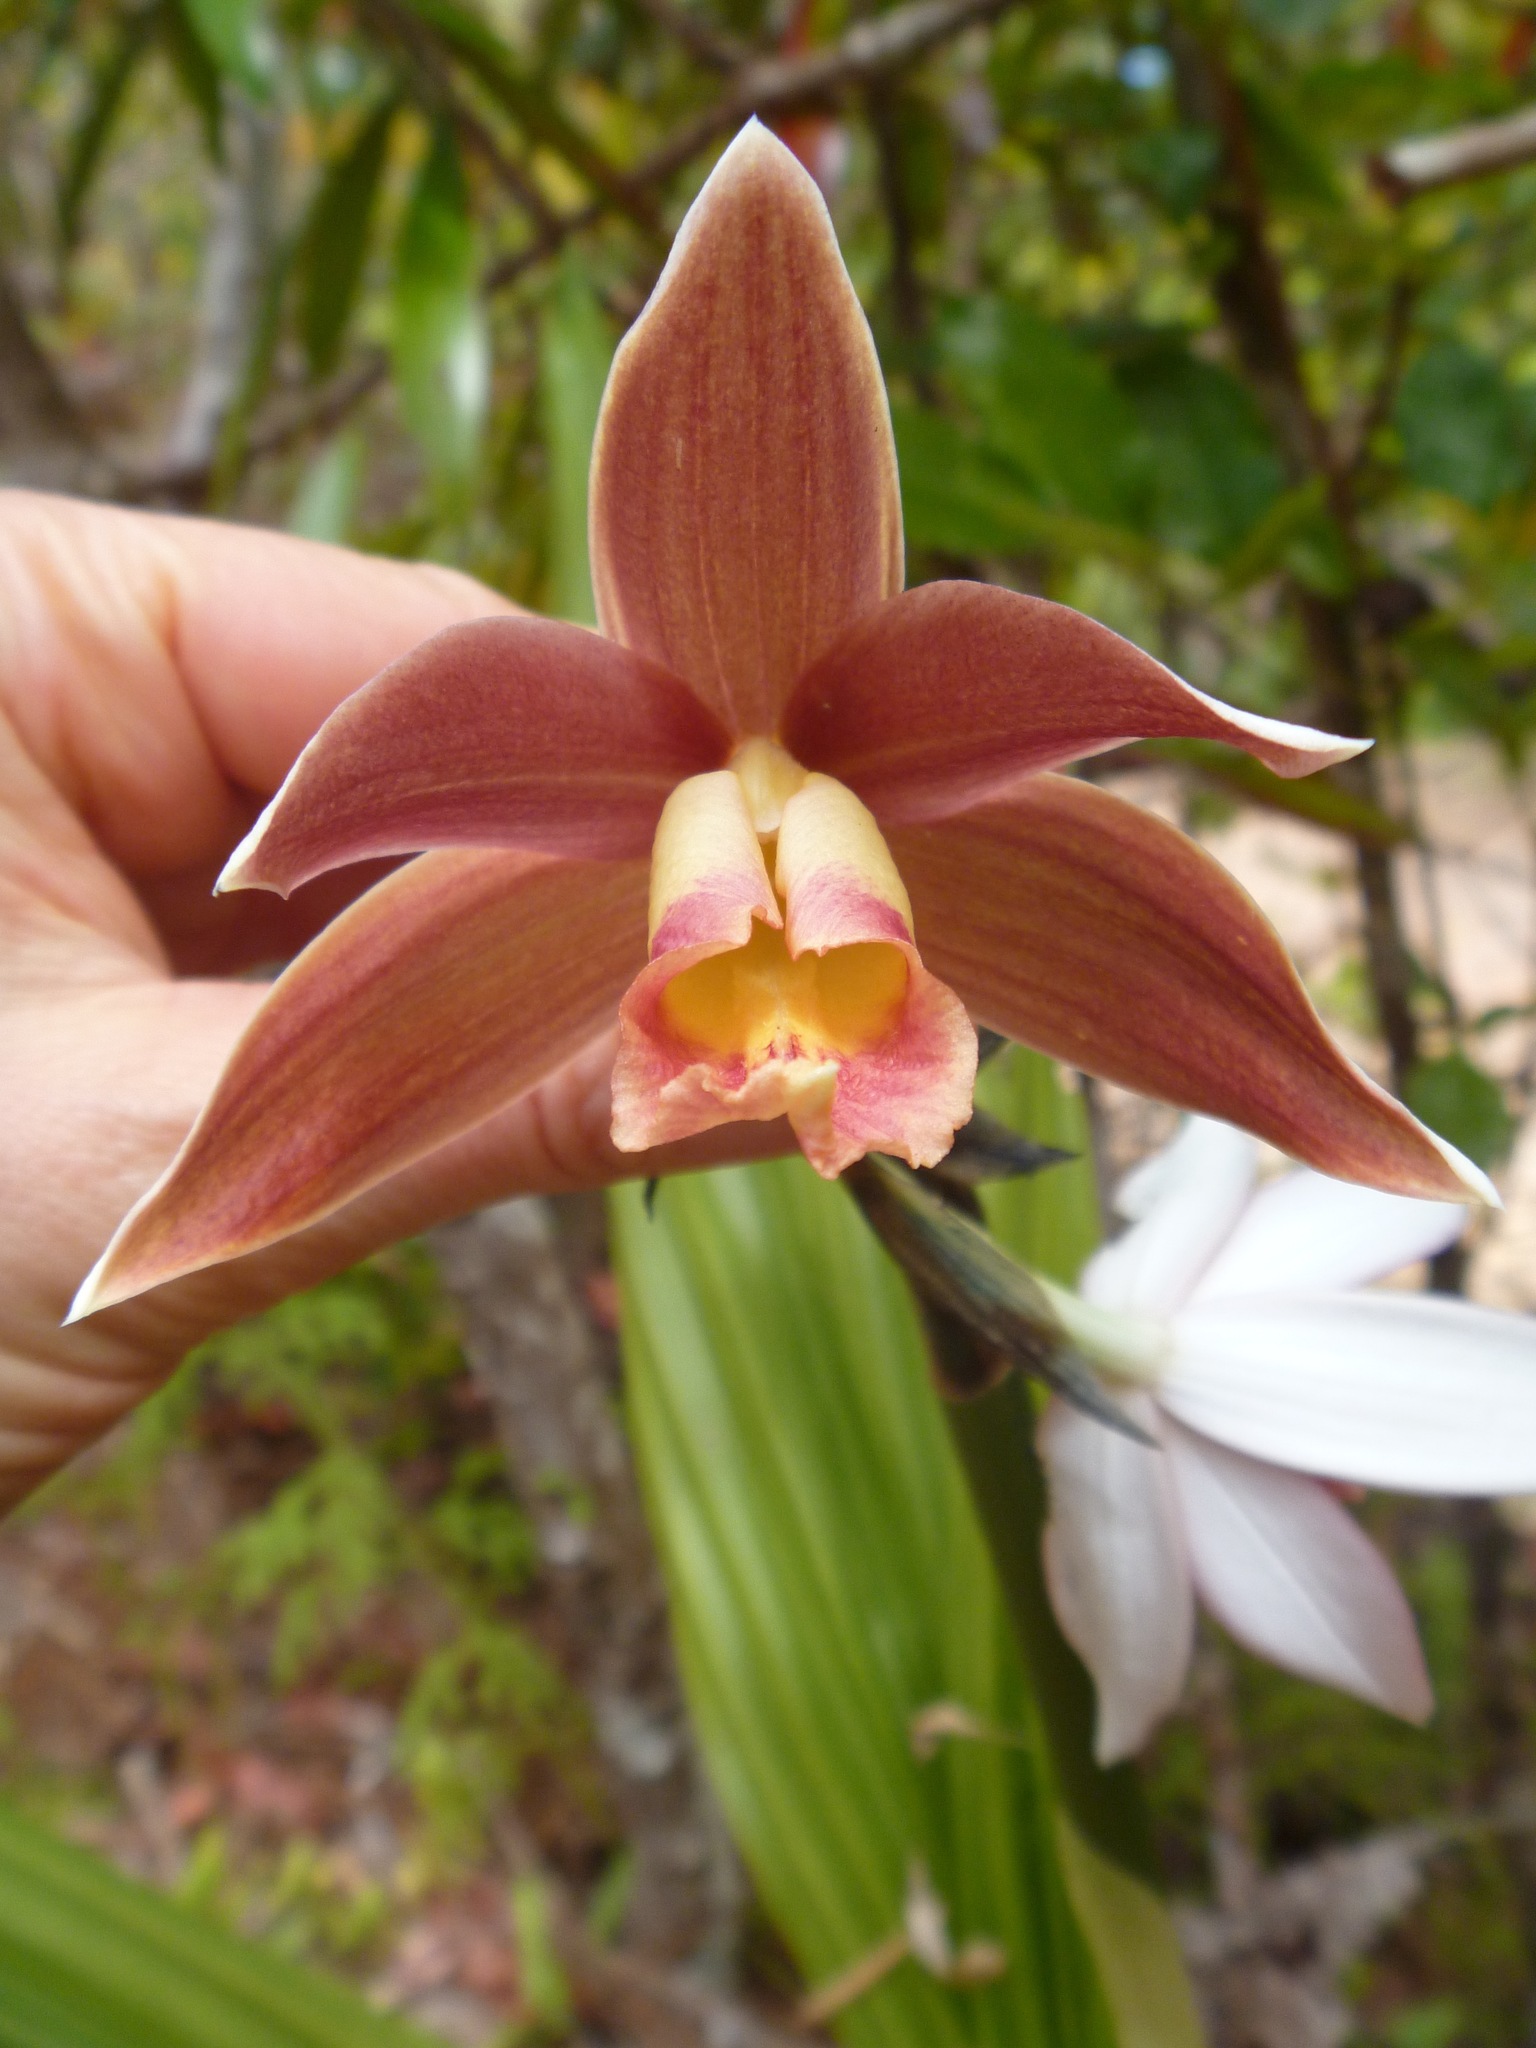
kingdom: Plantae
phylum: Tracheophyta
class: Liliopsida
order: Asparagales
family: Orchidaceae
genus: Calanthe
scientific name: Calanthe tankervilleae
